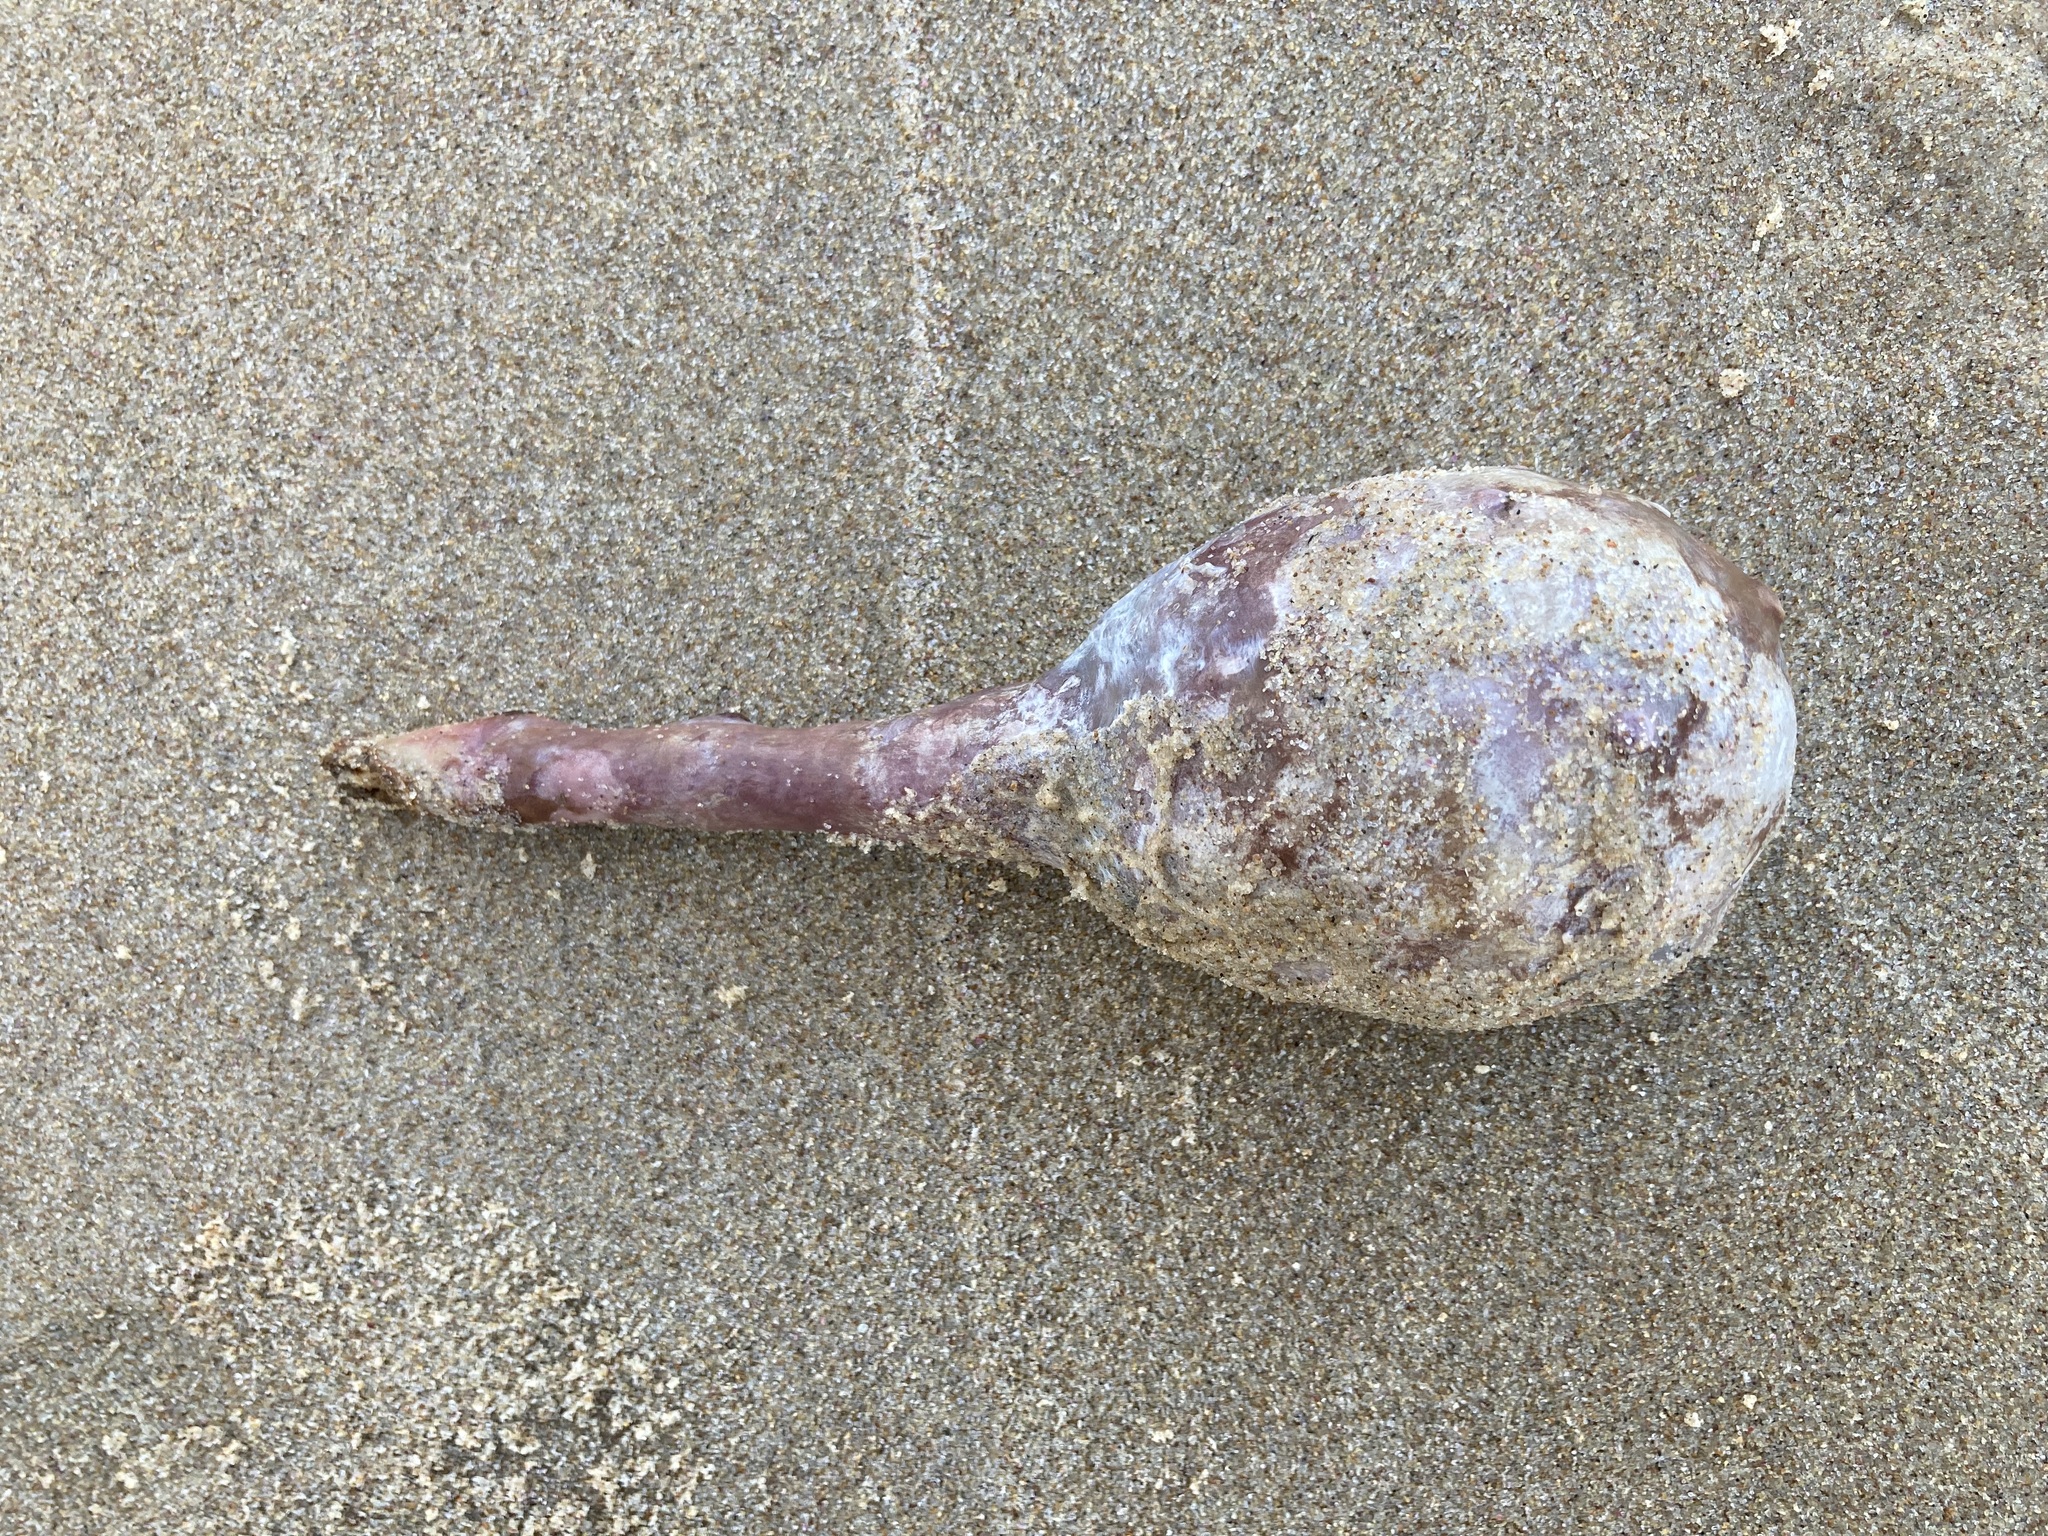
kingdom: Animalia
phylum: Chordata
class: Ascidiacea
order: Stolidobranchia
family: Pyuridae
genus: Pyura
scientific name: Pyura spinifera
